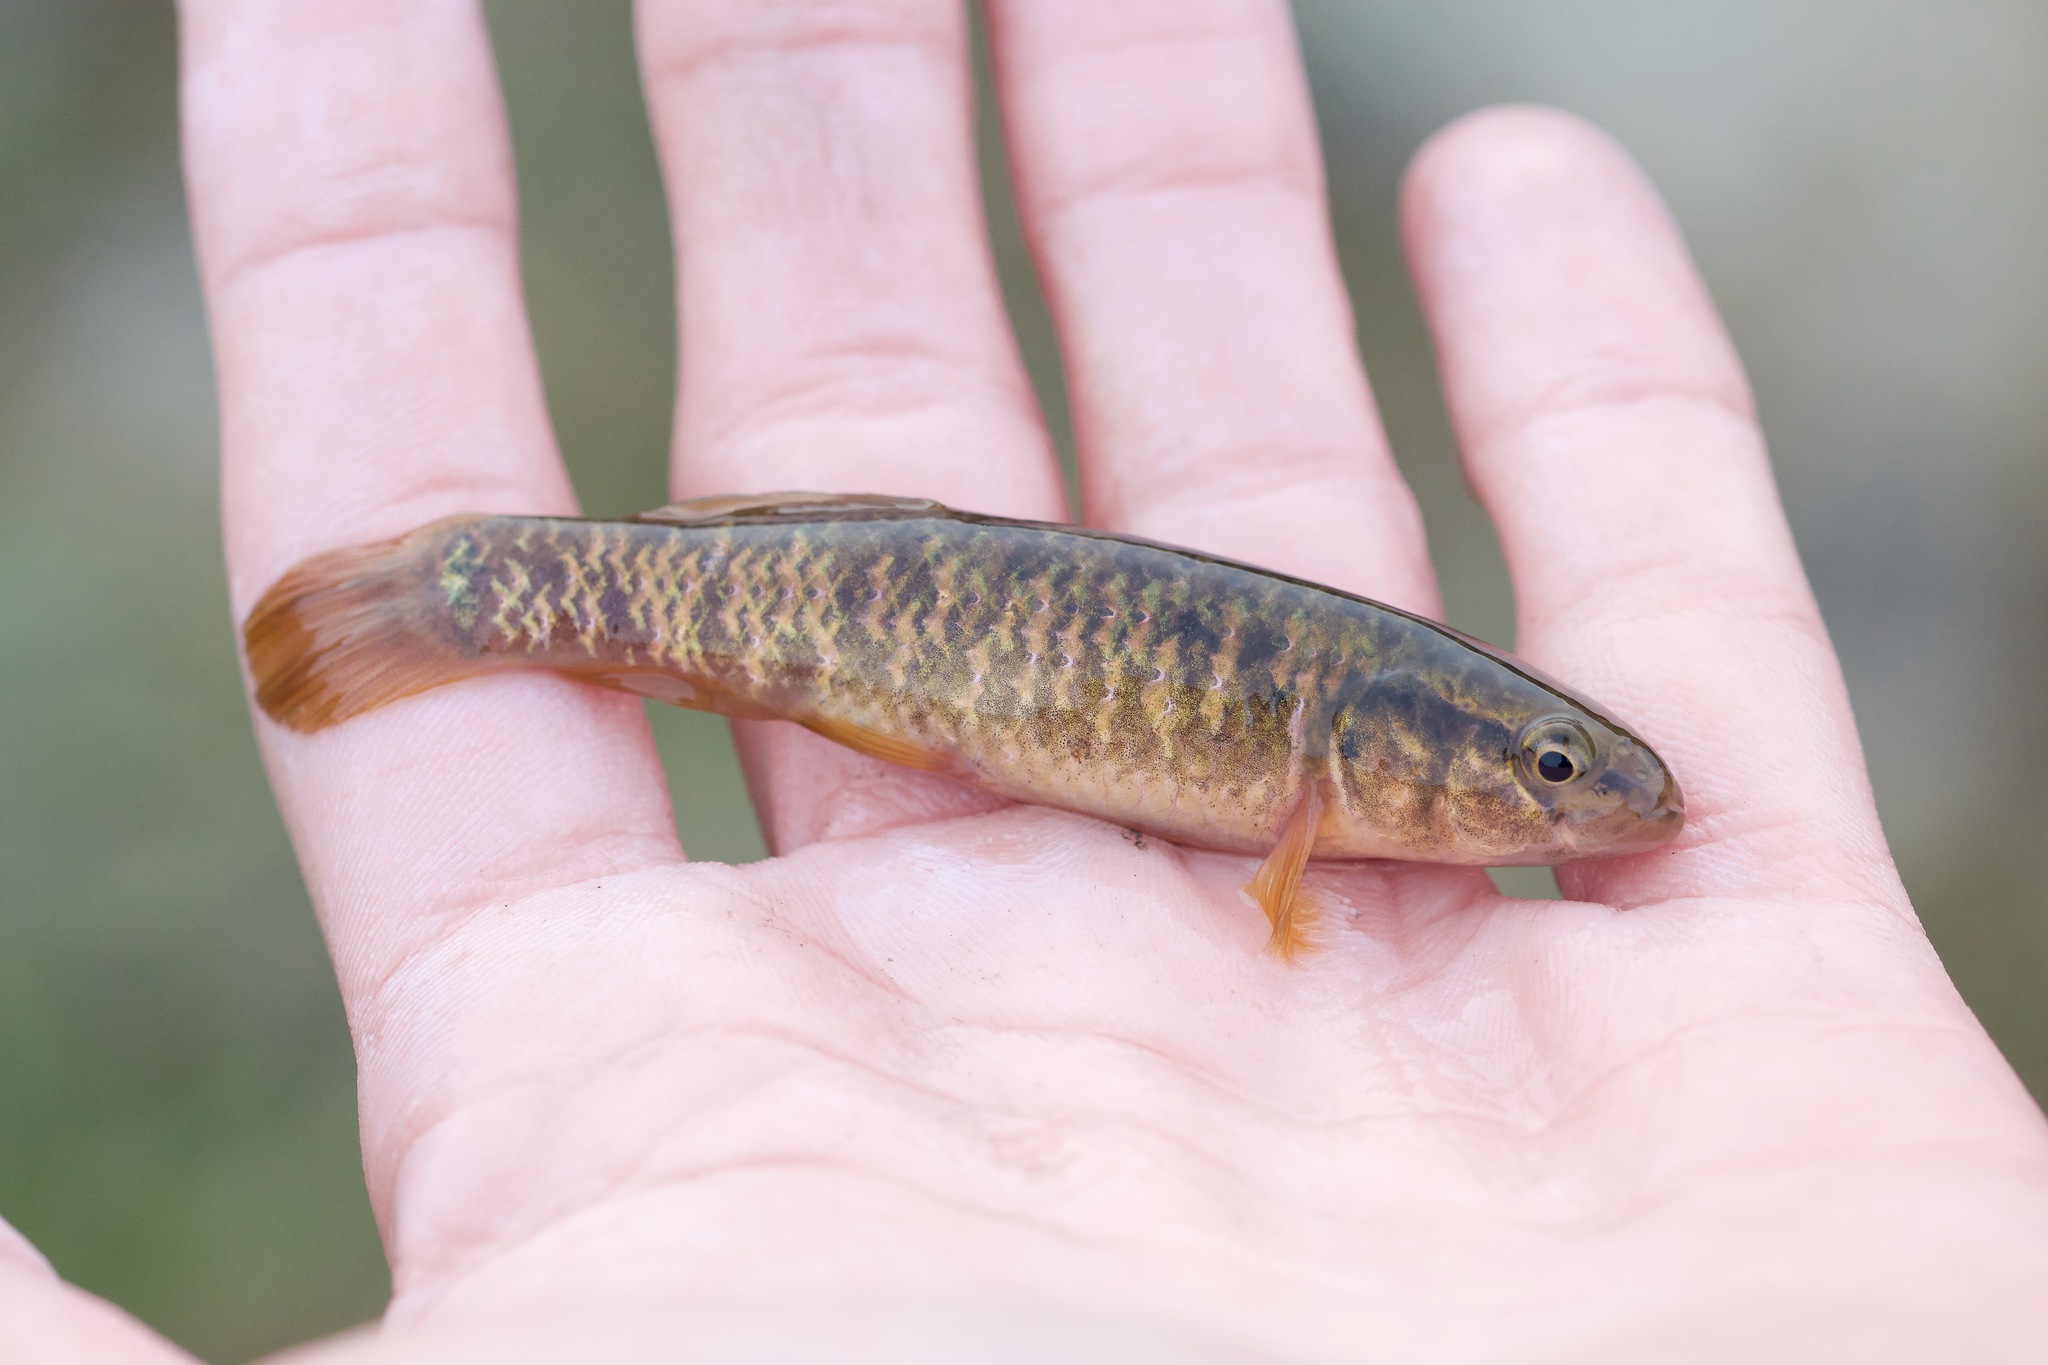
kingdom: Animalia
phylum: Chordata
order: Esociformes
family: Umbridae
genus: Umbra
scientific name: Umbra limi
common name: Central mudminnow
